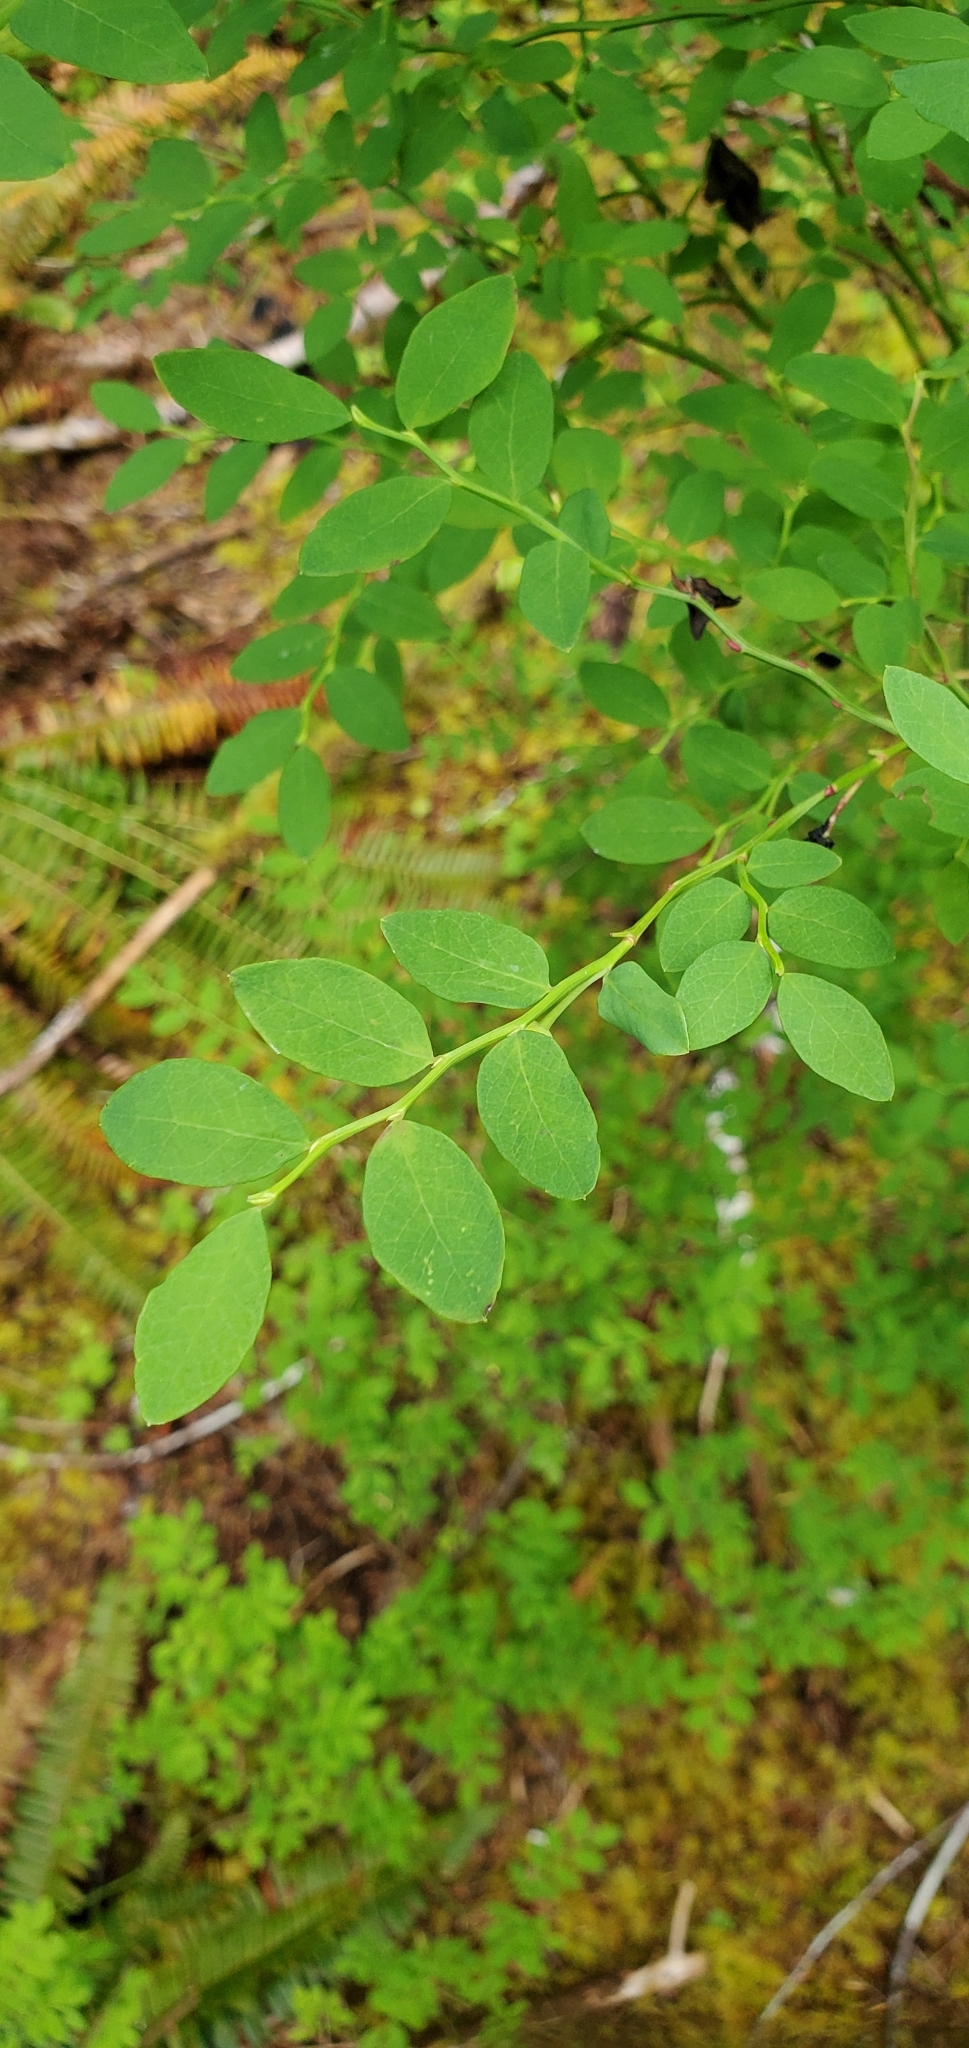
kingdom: Plantae
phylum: Tracheophyta
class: Magnoliopsida
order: Ericales
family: Ericaceae
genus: Vaccinium
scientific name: Vaccinium parvifolium
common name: Red-huckleberry
